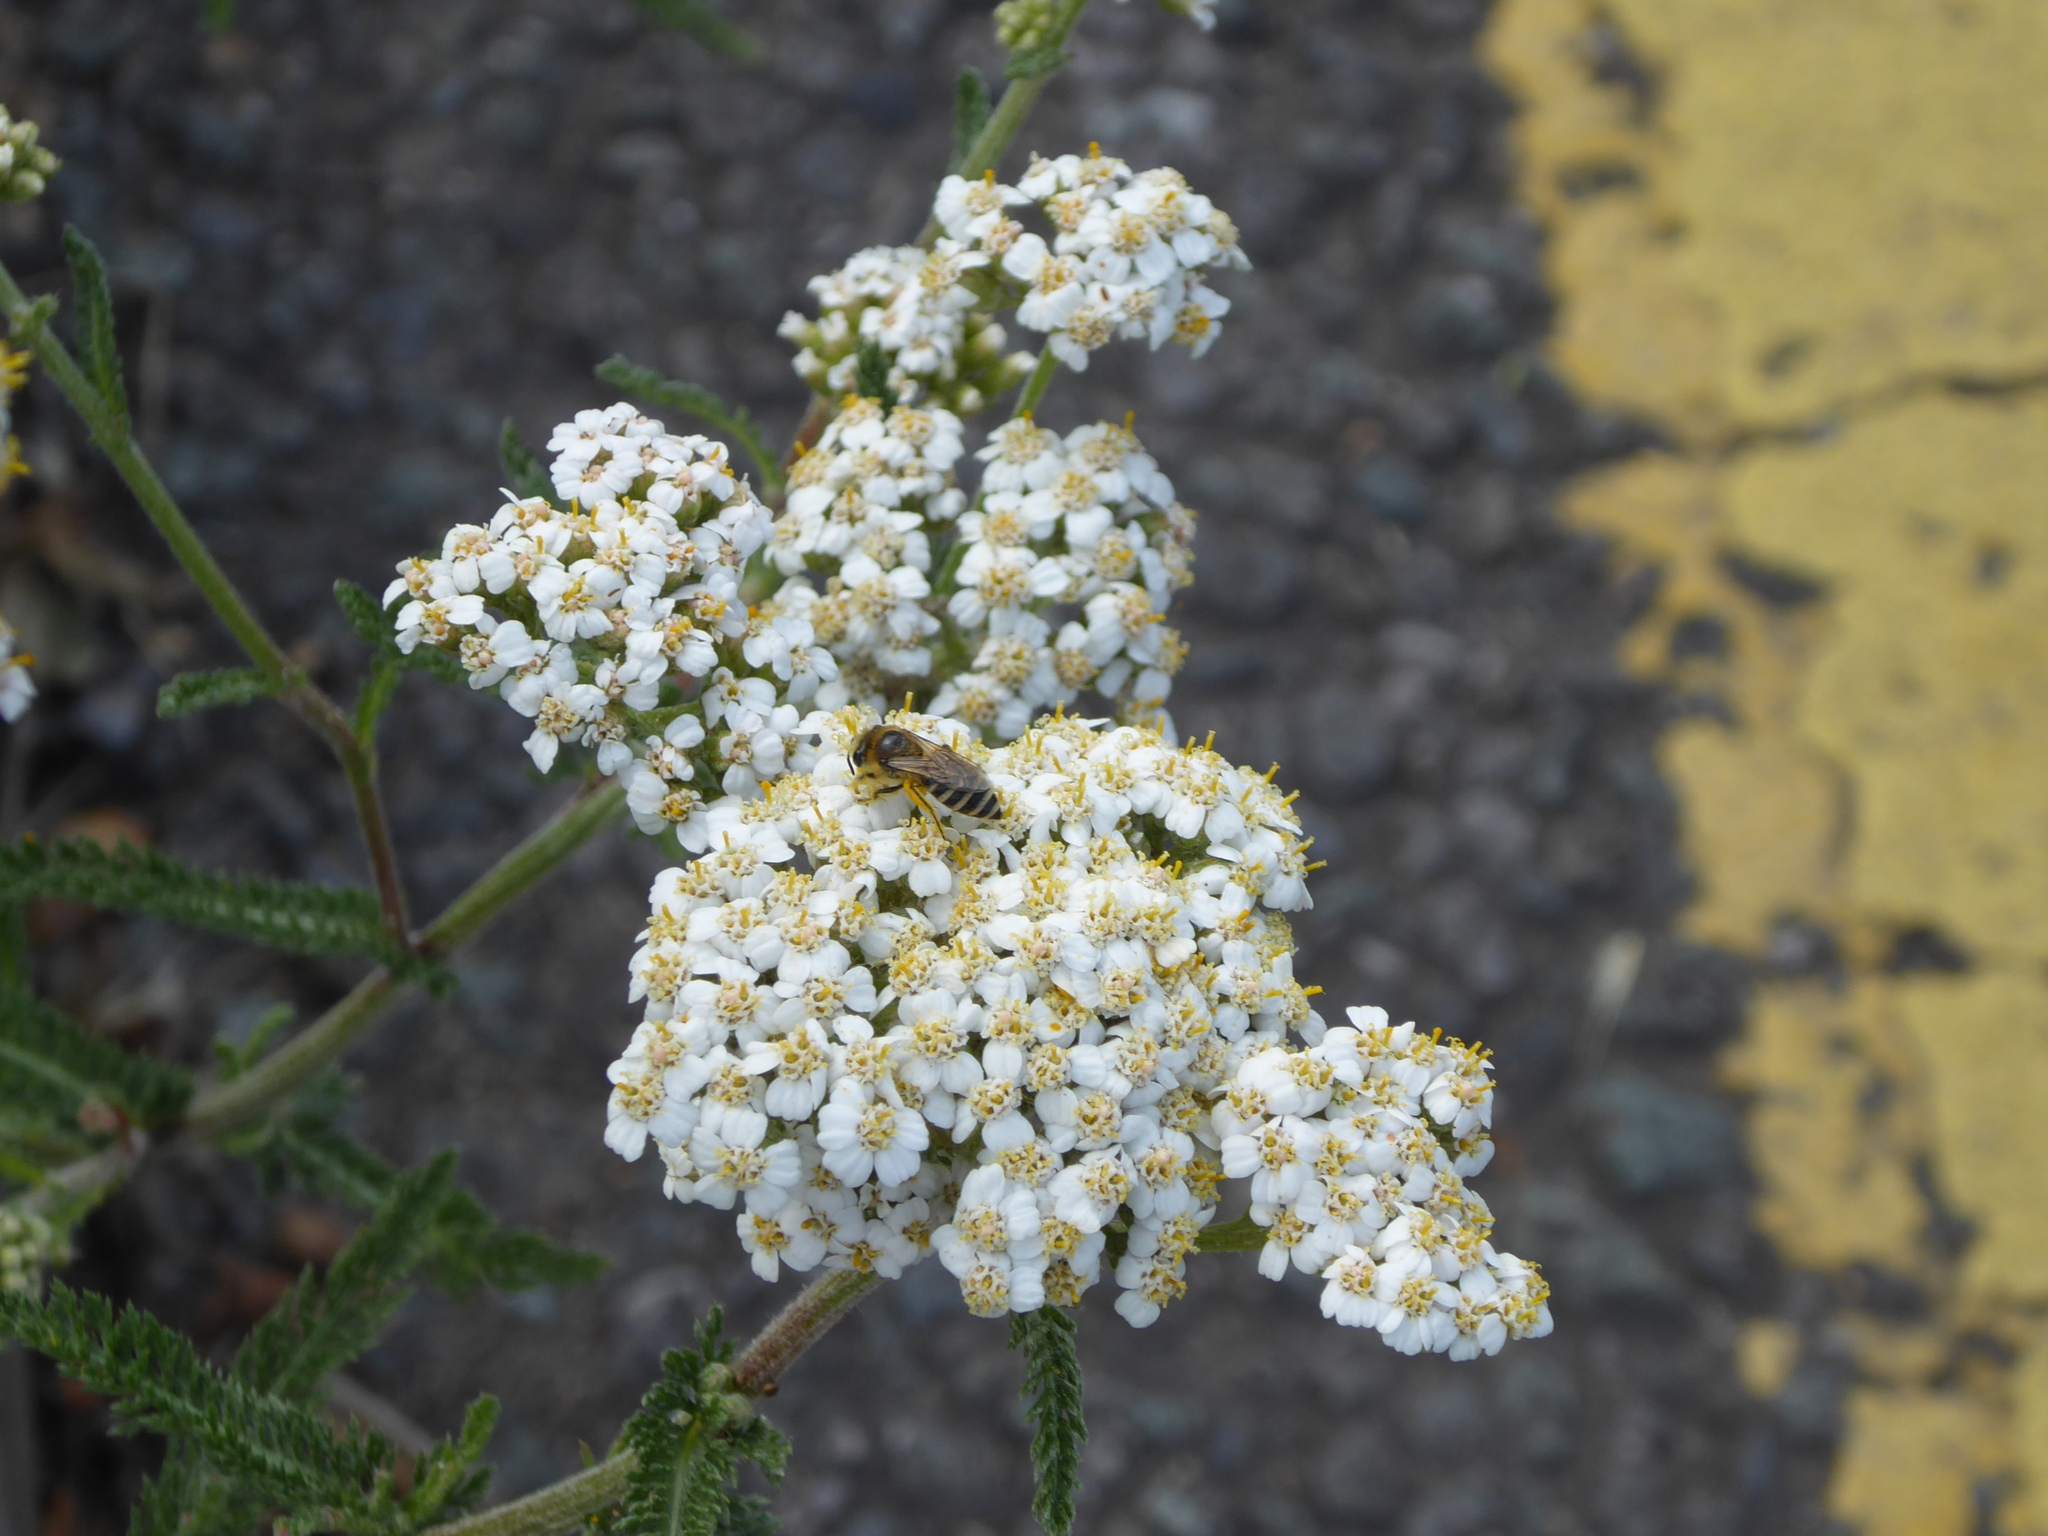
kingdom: Plantae
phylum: Tracheophyta
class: Magnoliopsida
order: Asterales
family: Asteraceae
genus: Achillea
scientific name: Achillea millefolium
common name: Yarrow
